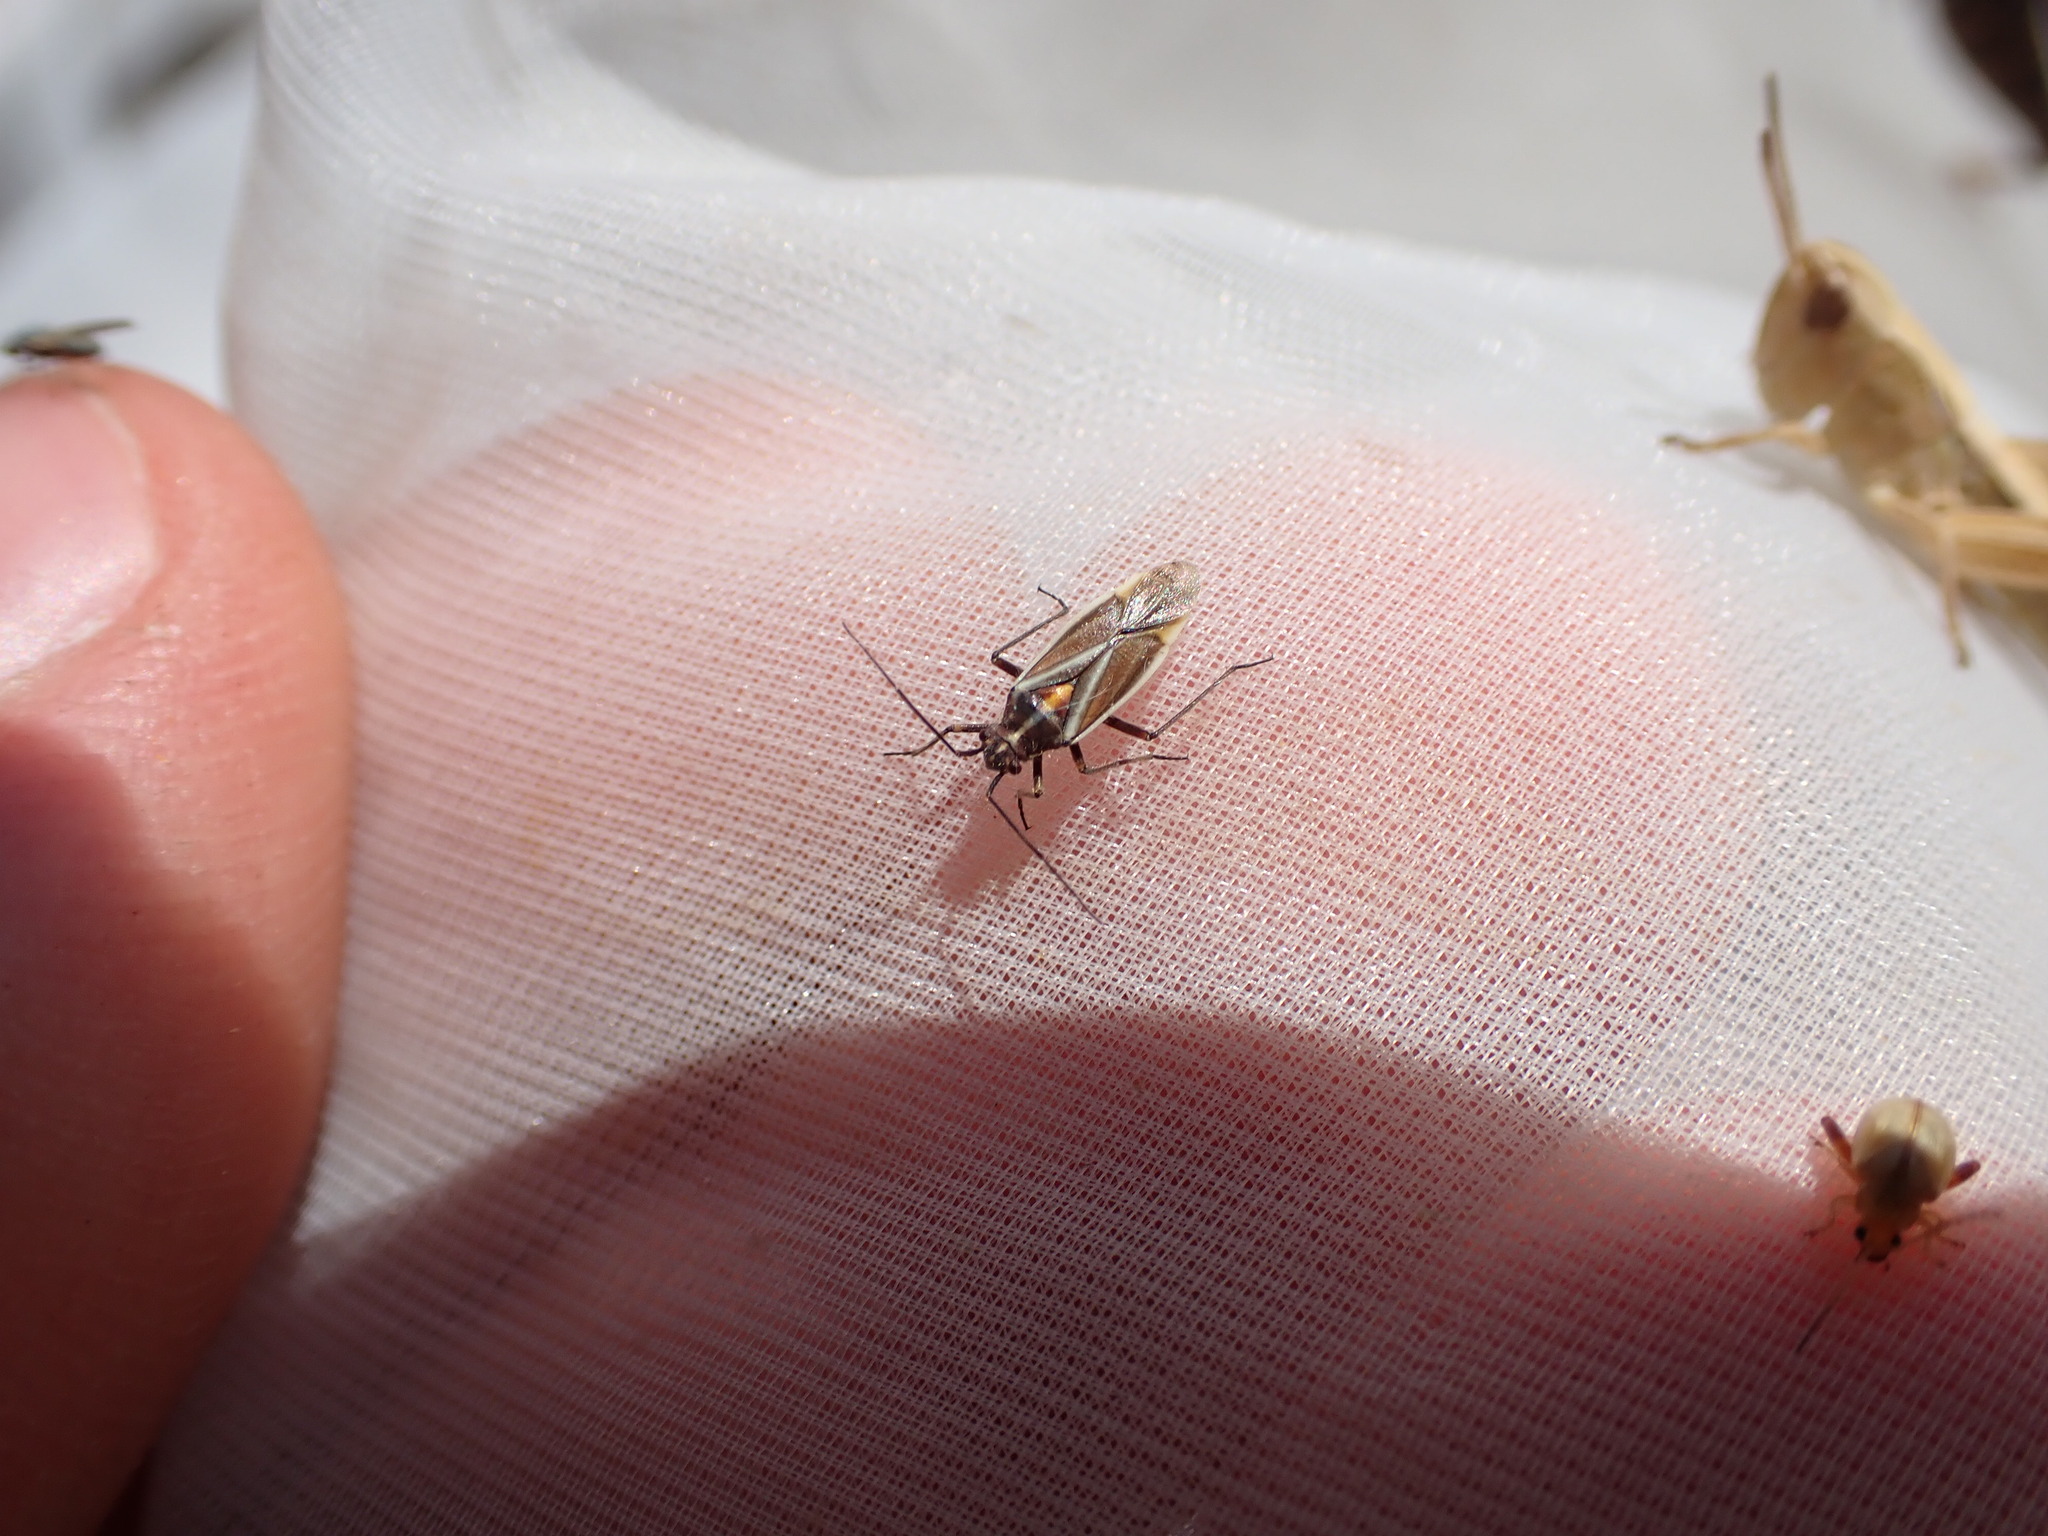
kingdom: Animalia
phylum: Arthropoda
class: Insecta
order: Hemiptera
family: Miridae
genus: Horistus
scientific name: Horistus orientalis
